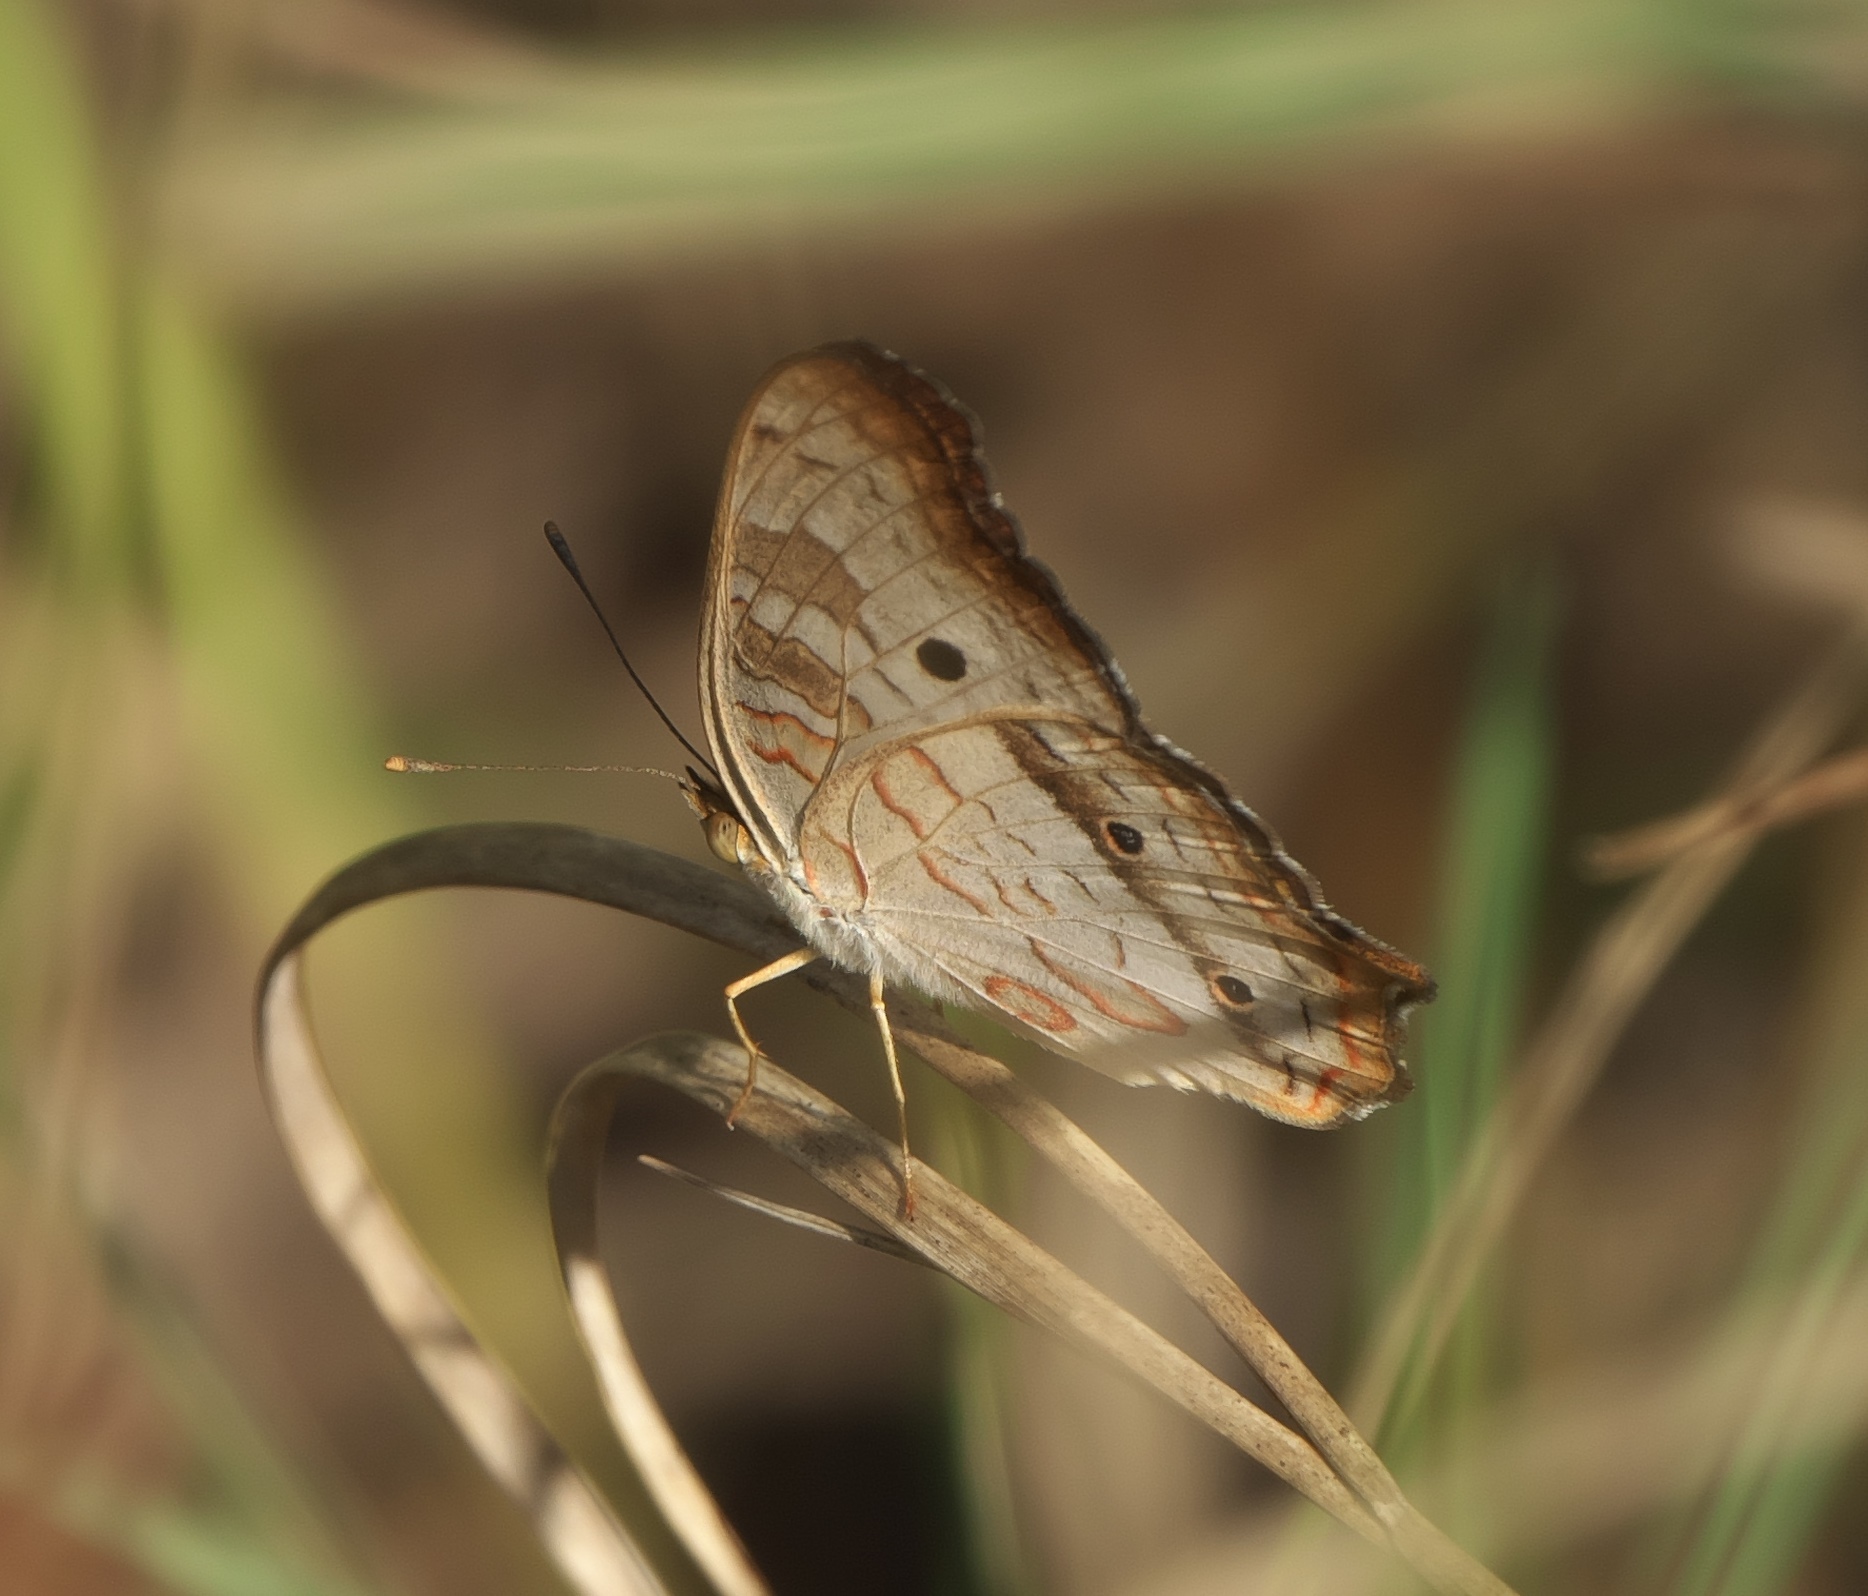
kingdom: Animalia
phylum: Arthropoda
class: Insecta
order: Lepidoptera
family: Nymphalidae
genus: Anartia
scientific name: Anartia jatrophae
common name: White peacock
